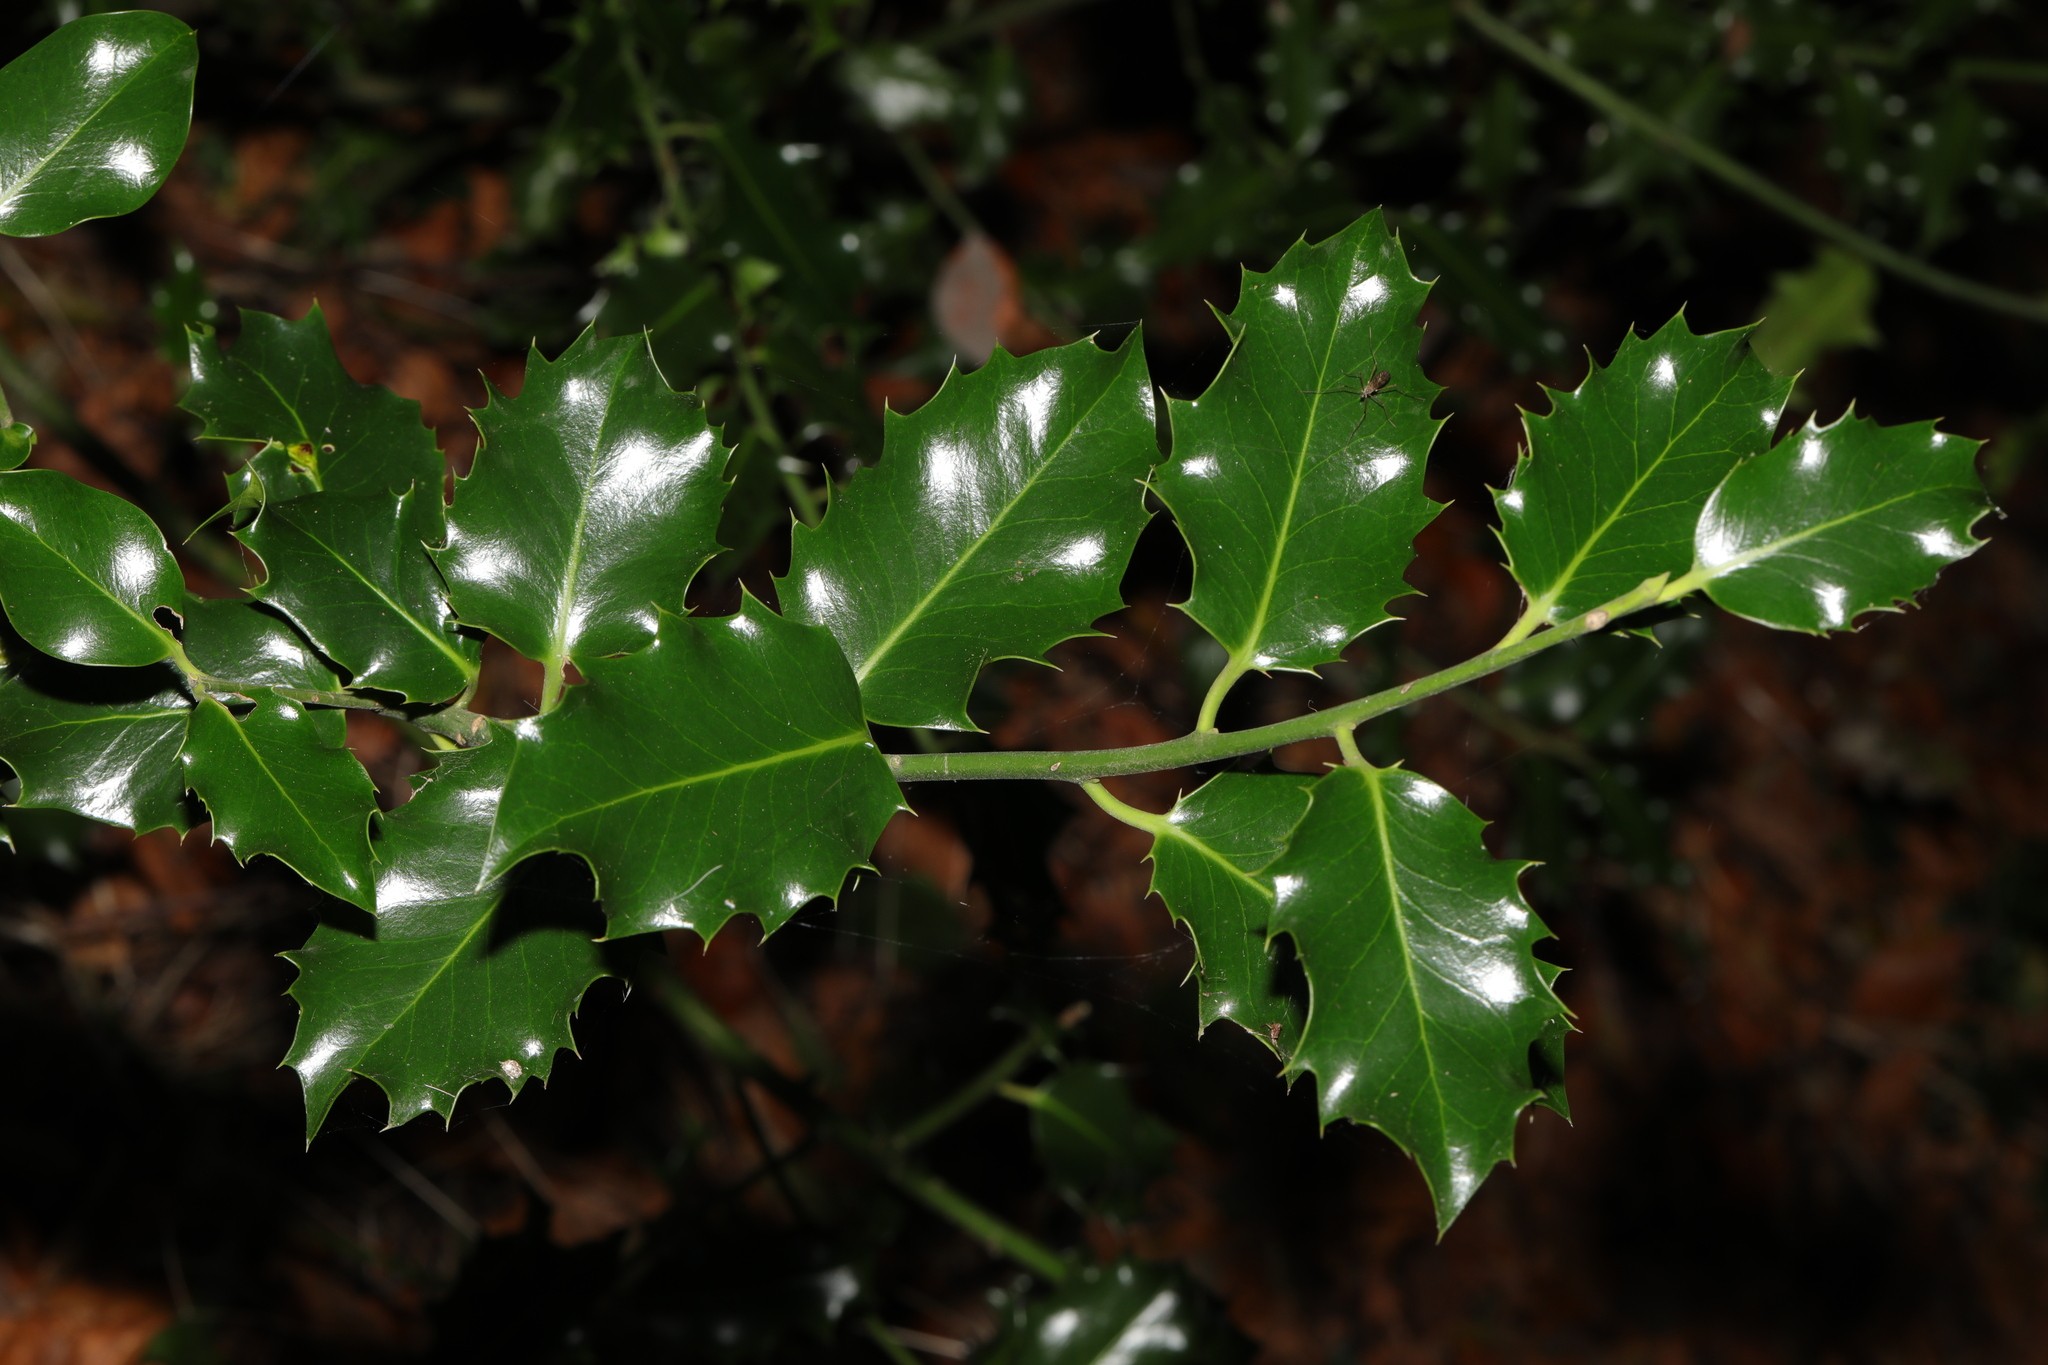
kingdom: Plantae
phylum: Tracheophyta
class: Magnoliopsida
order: Aquifoliales
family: Aquifoliaceae
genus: Ilex
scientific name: Ilex aquifolium
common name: English holly
